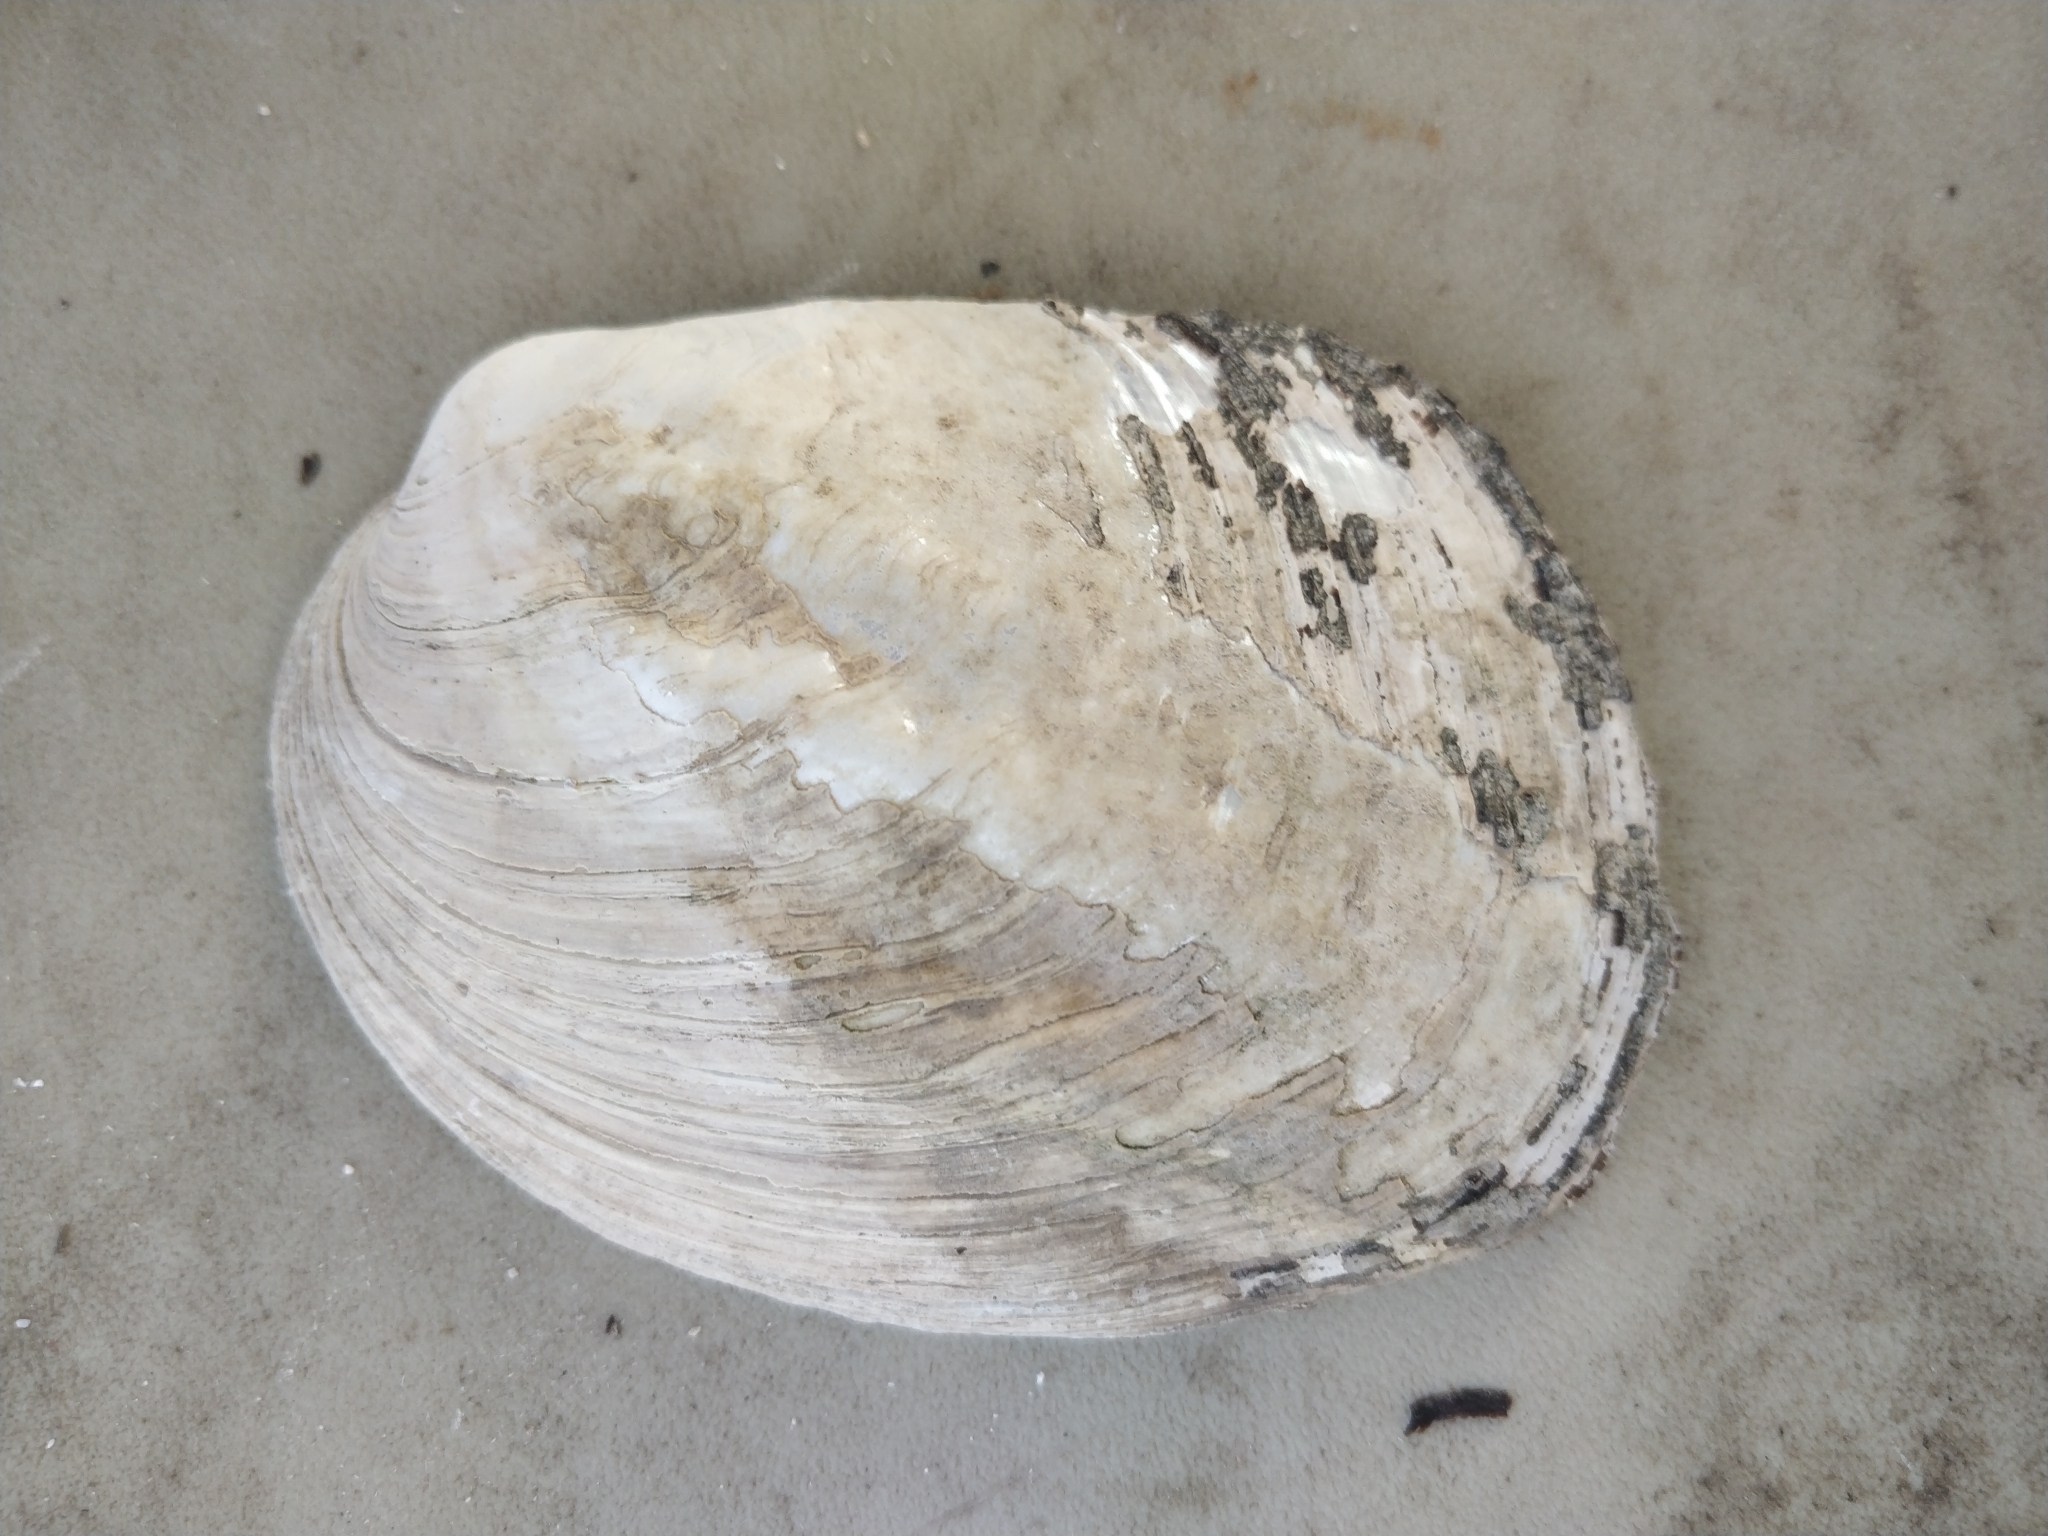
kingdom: Animalia
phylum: Mollusca
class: Bivalvia
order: Unionida
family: Unionidae
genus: Amblema
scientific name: Amblema plicata
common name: Threeridge
